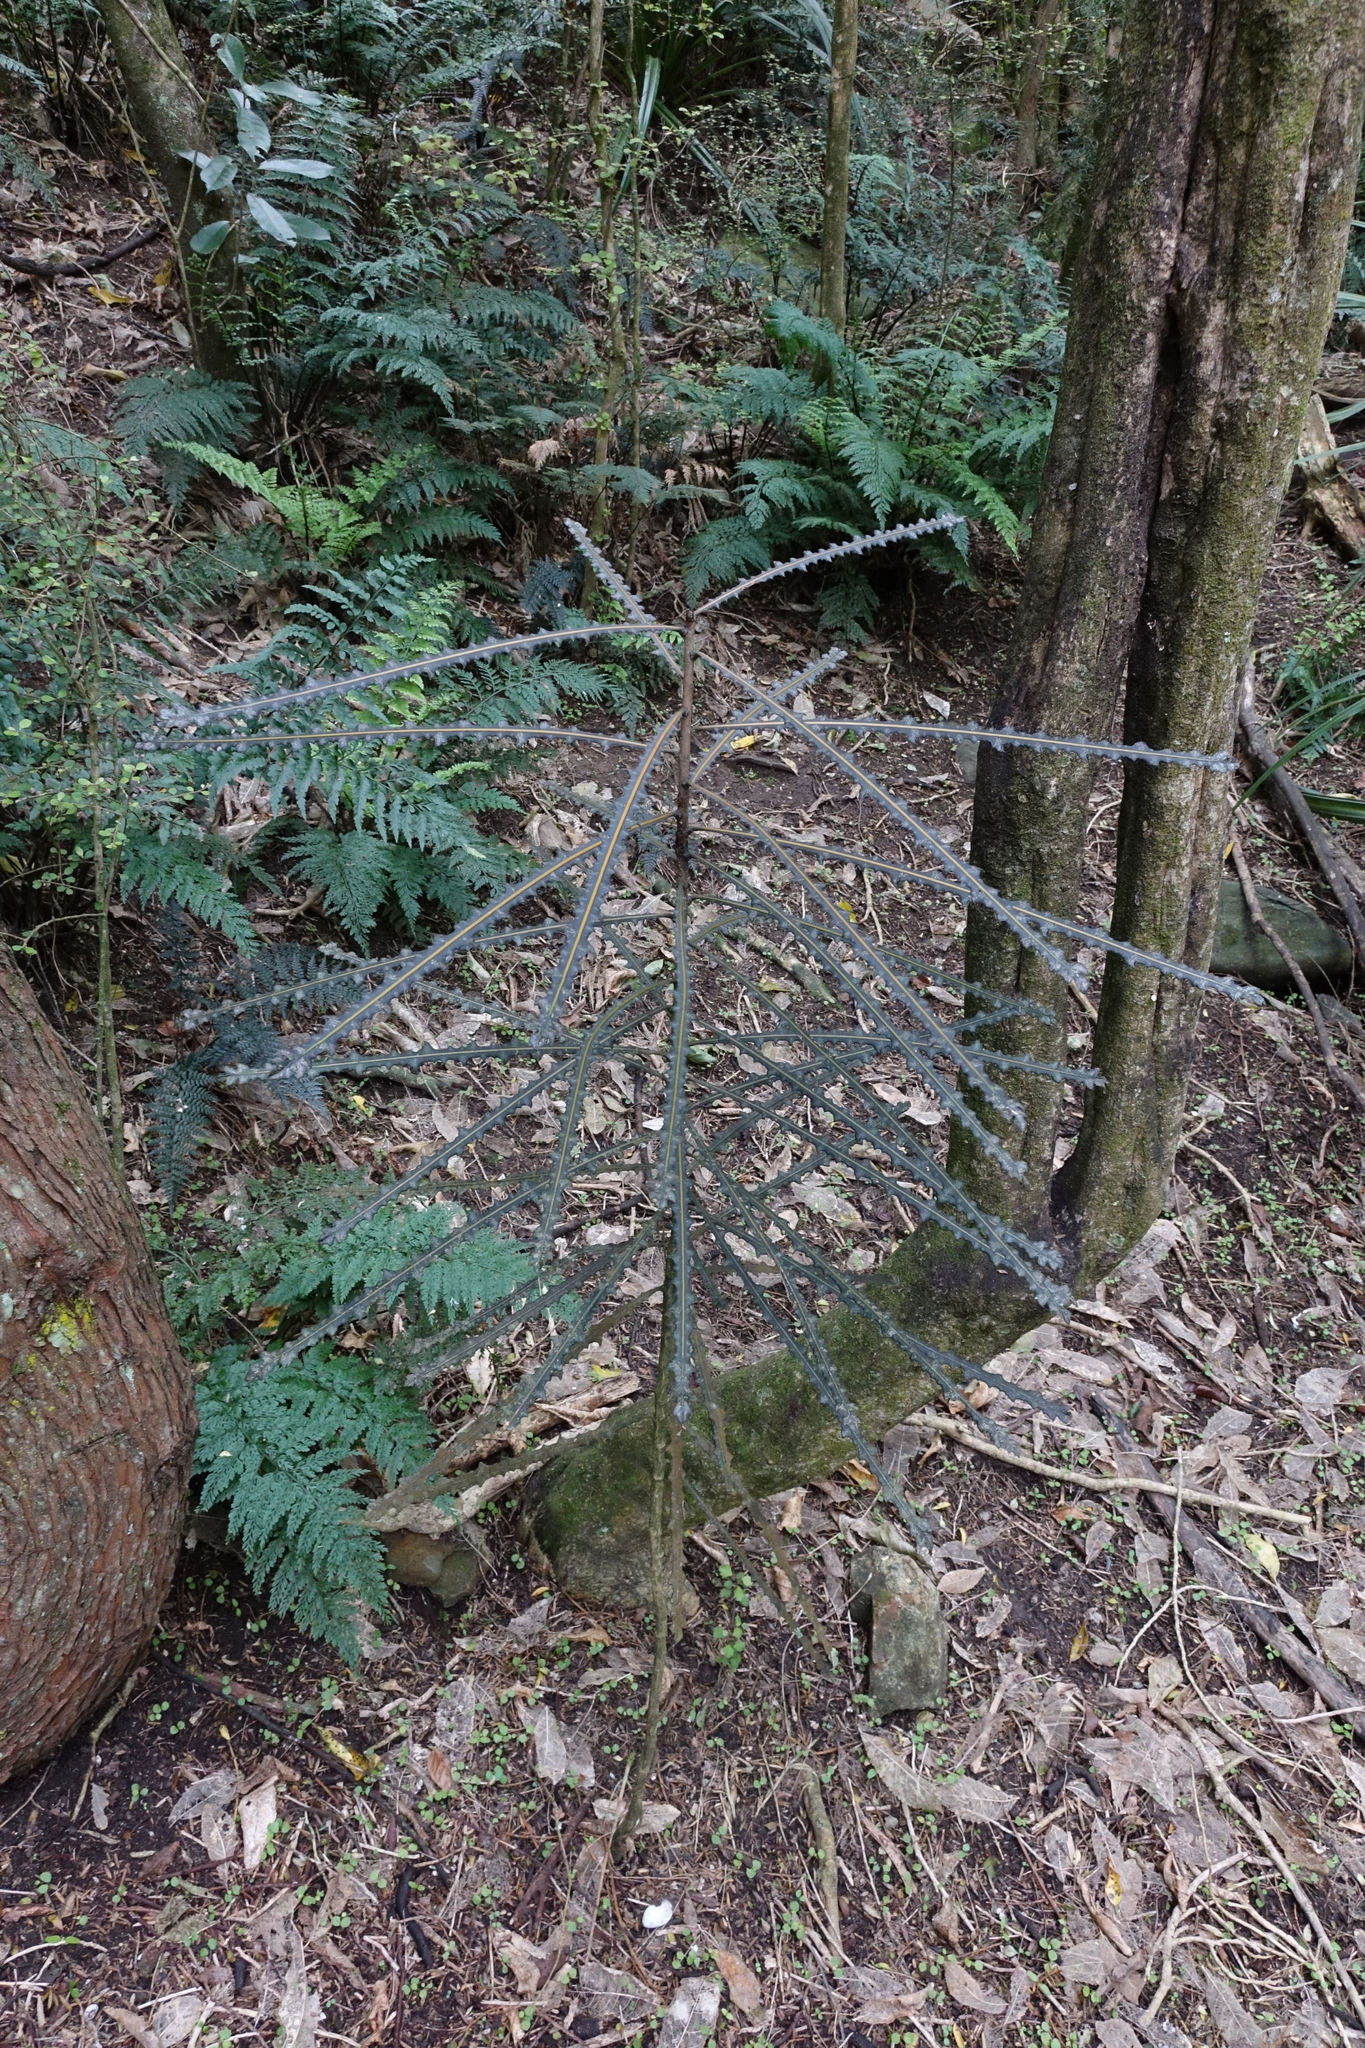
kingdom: Plantae
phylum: Tracheophyta
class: Magnoliopsida
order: Apiales
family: Araliaceae
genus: Pseudopanax
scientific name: Pseudopanax ferox
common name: Fierce lancewood
